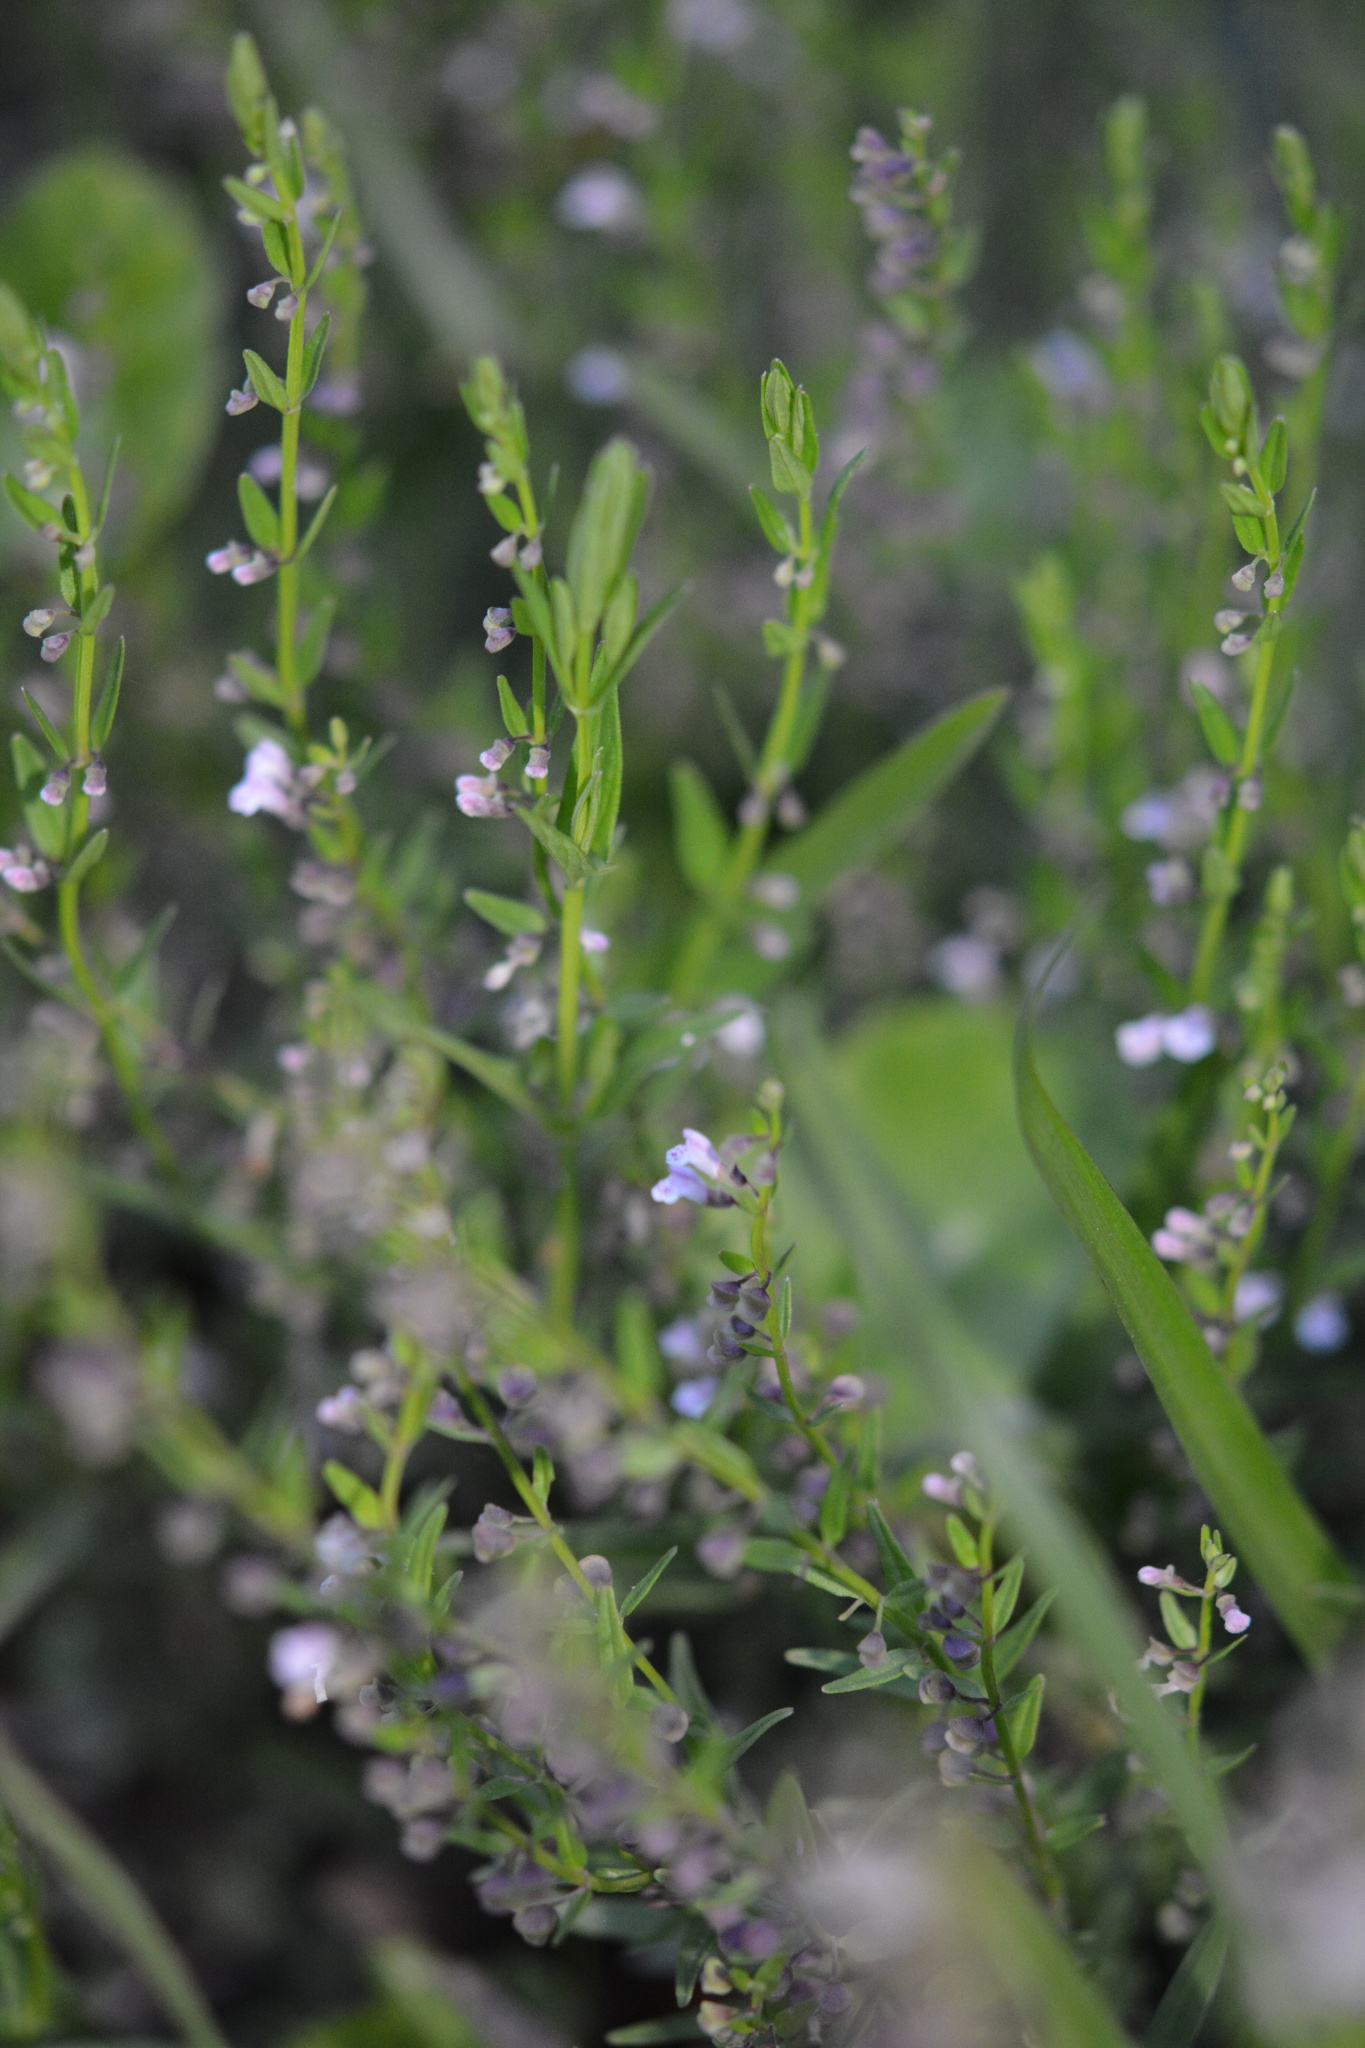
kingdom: Plantae
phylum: Tracheophyta
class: Magnoliopsida
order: Lamiales
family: Lamiaceae
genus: Scutellaria
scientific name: Scutellaria racemosa
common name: South american skullcap
